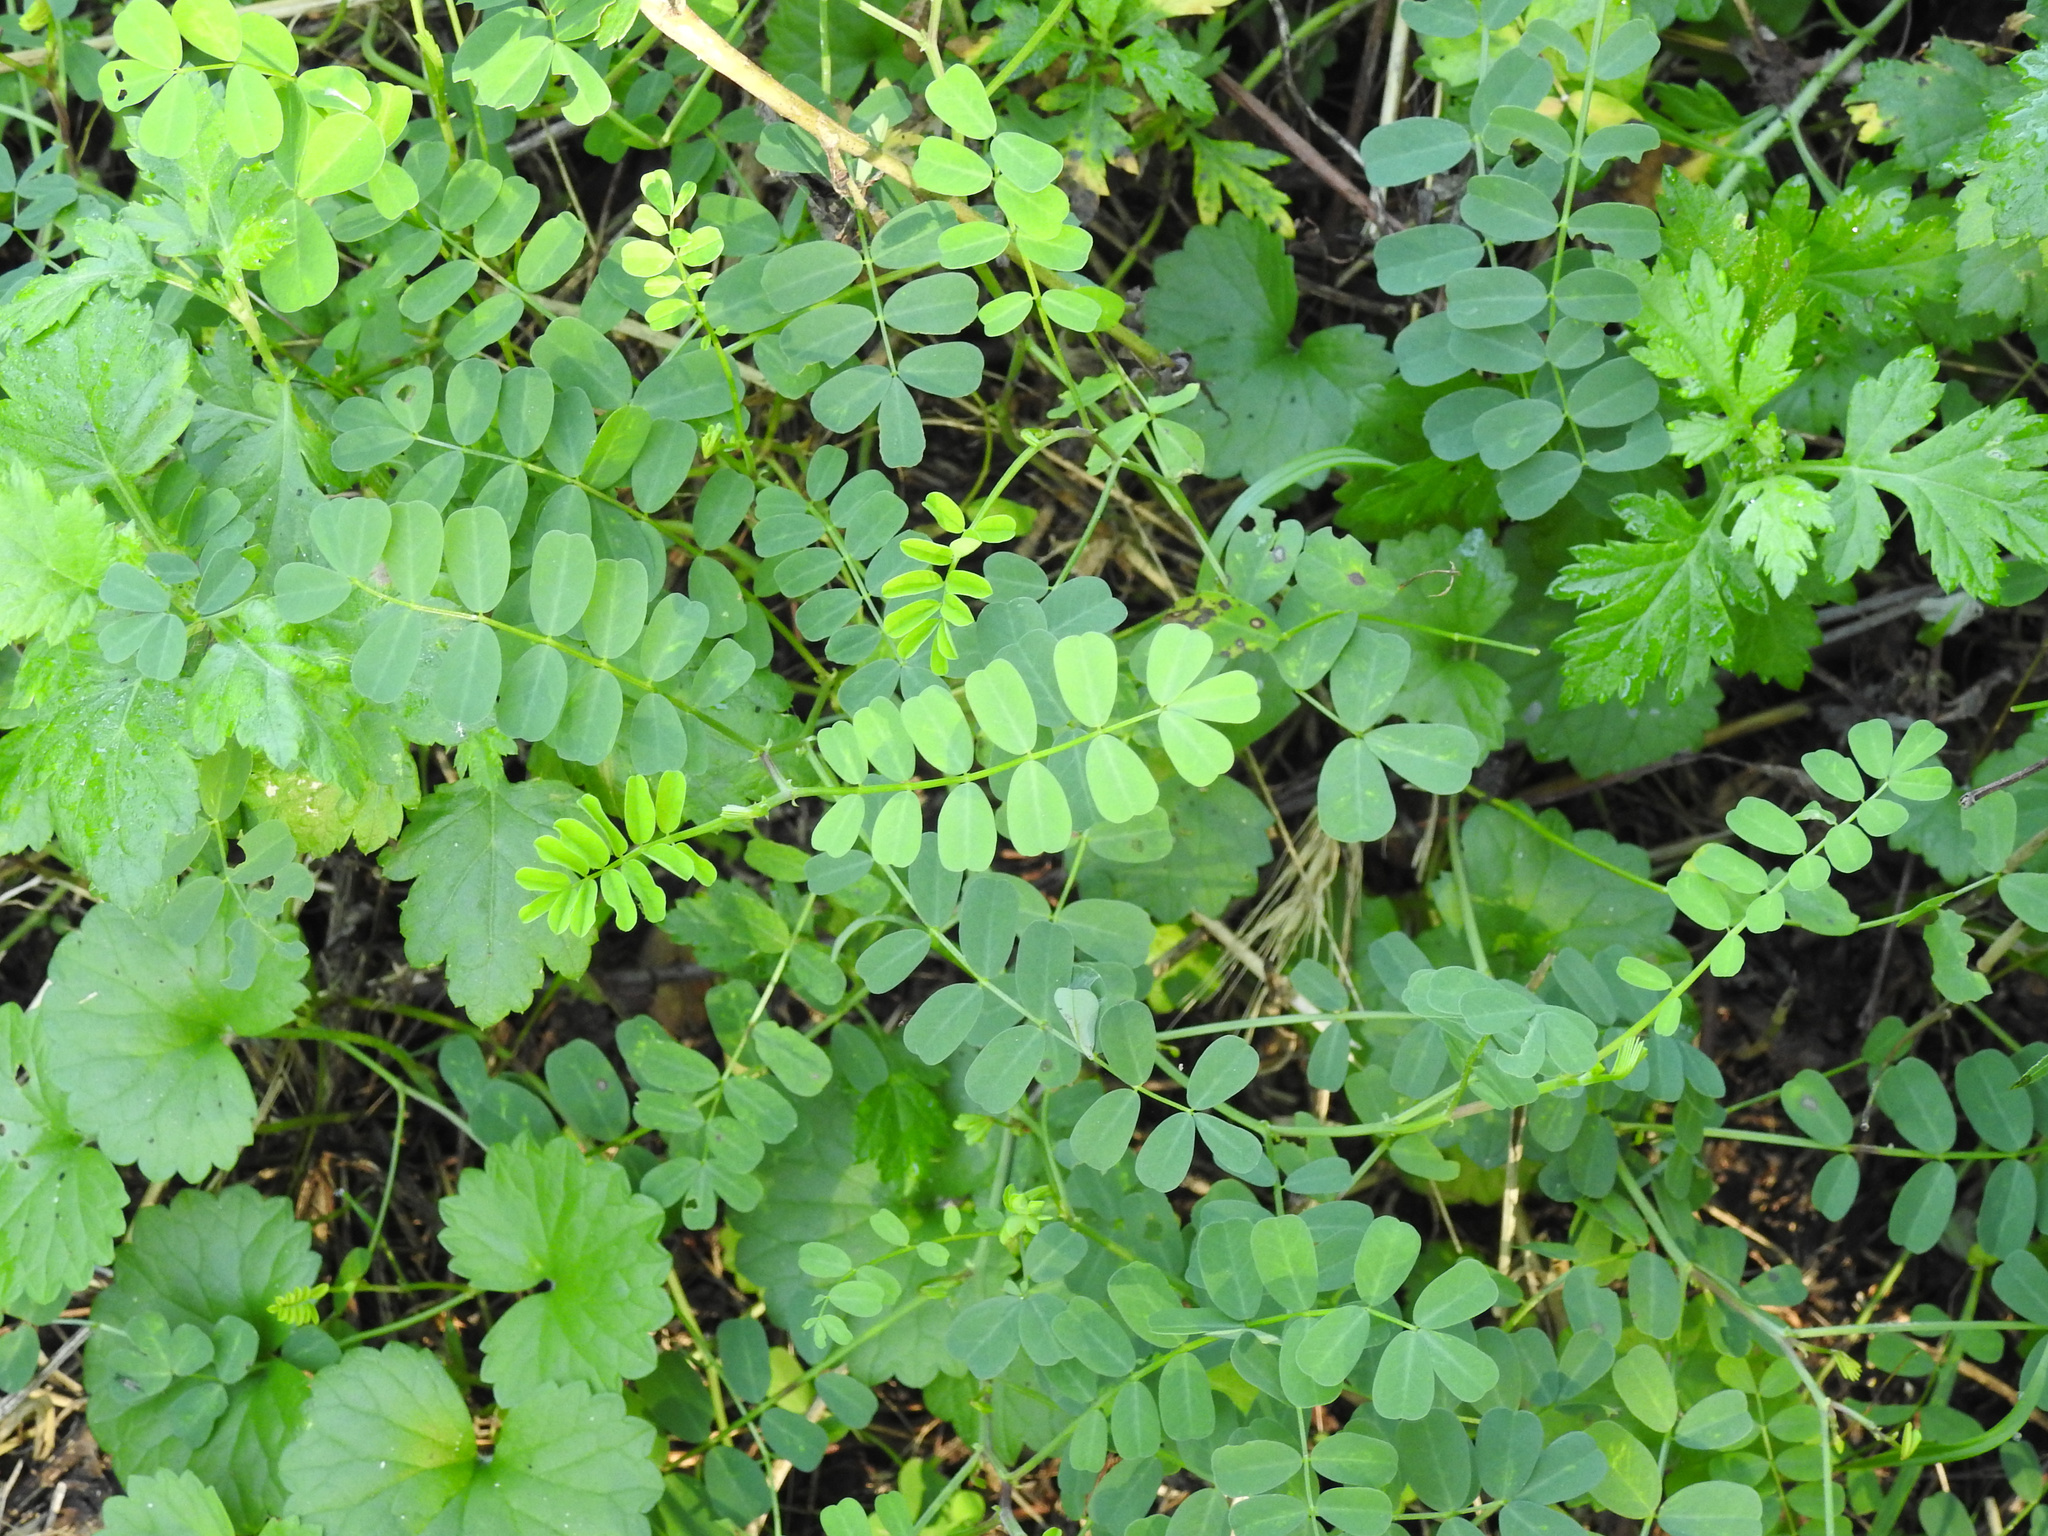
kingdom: Plantae
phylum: Tracheophyta
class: Magnoliopsida
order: Fabales
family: Fabaceae
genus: Coronilla
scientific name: Coronilla varia
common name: Crownvetch
